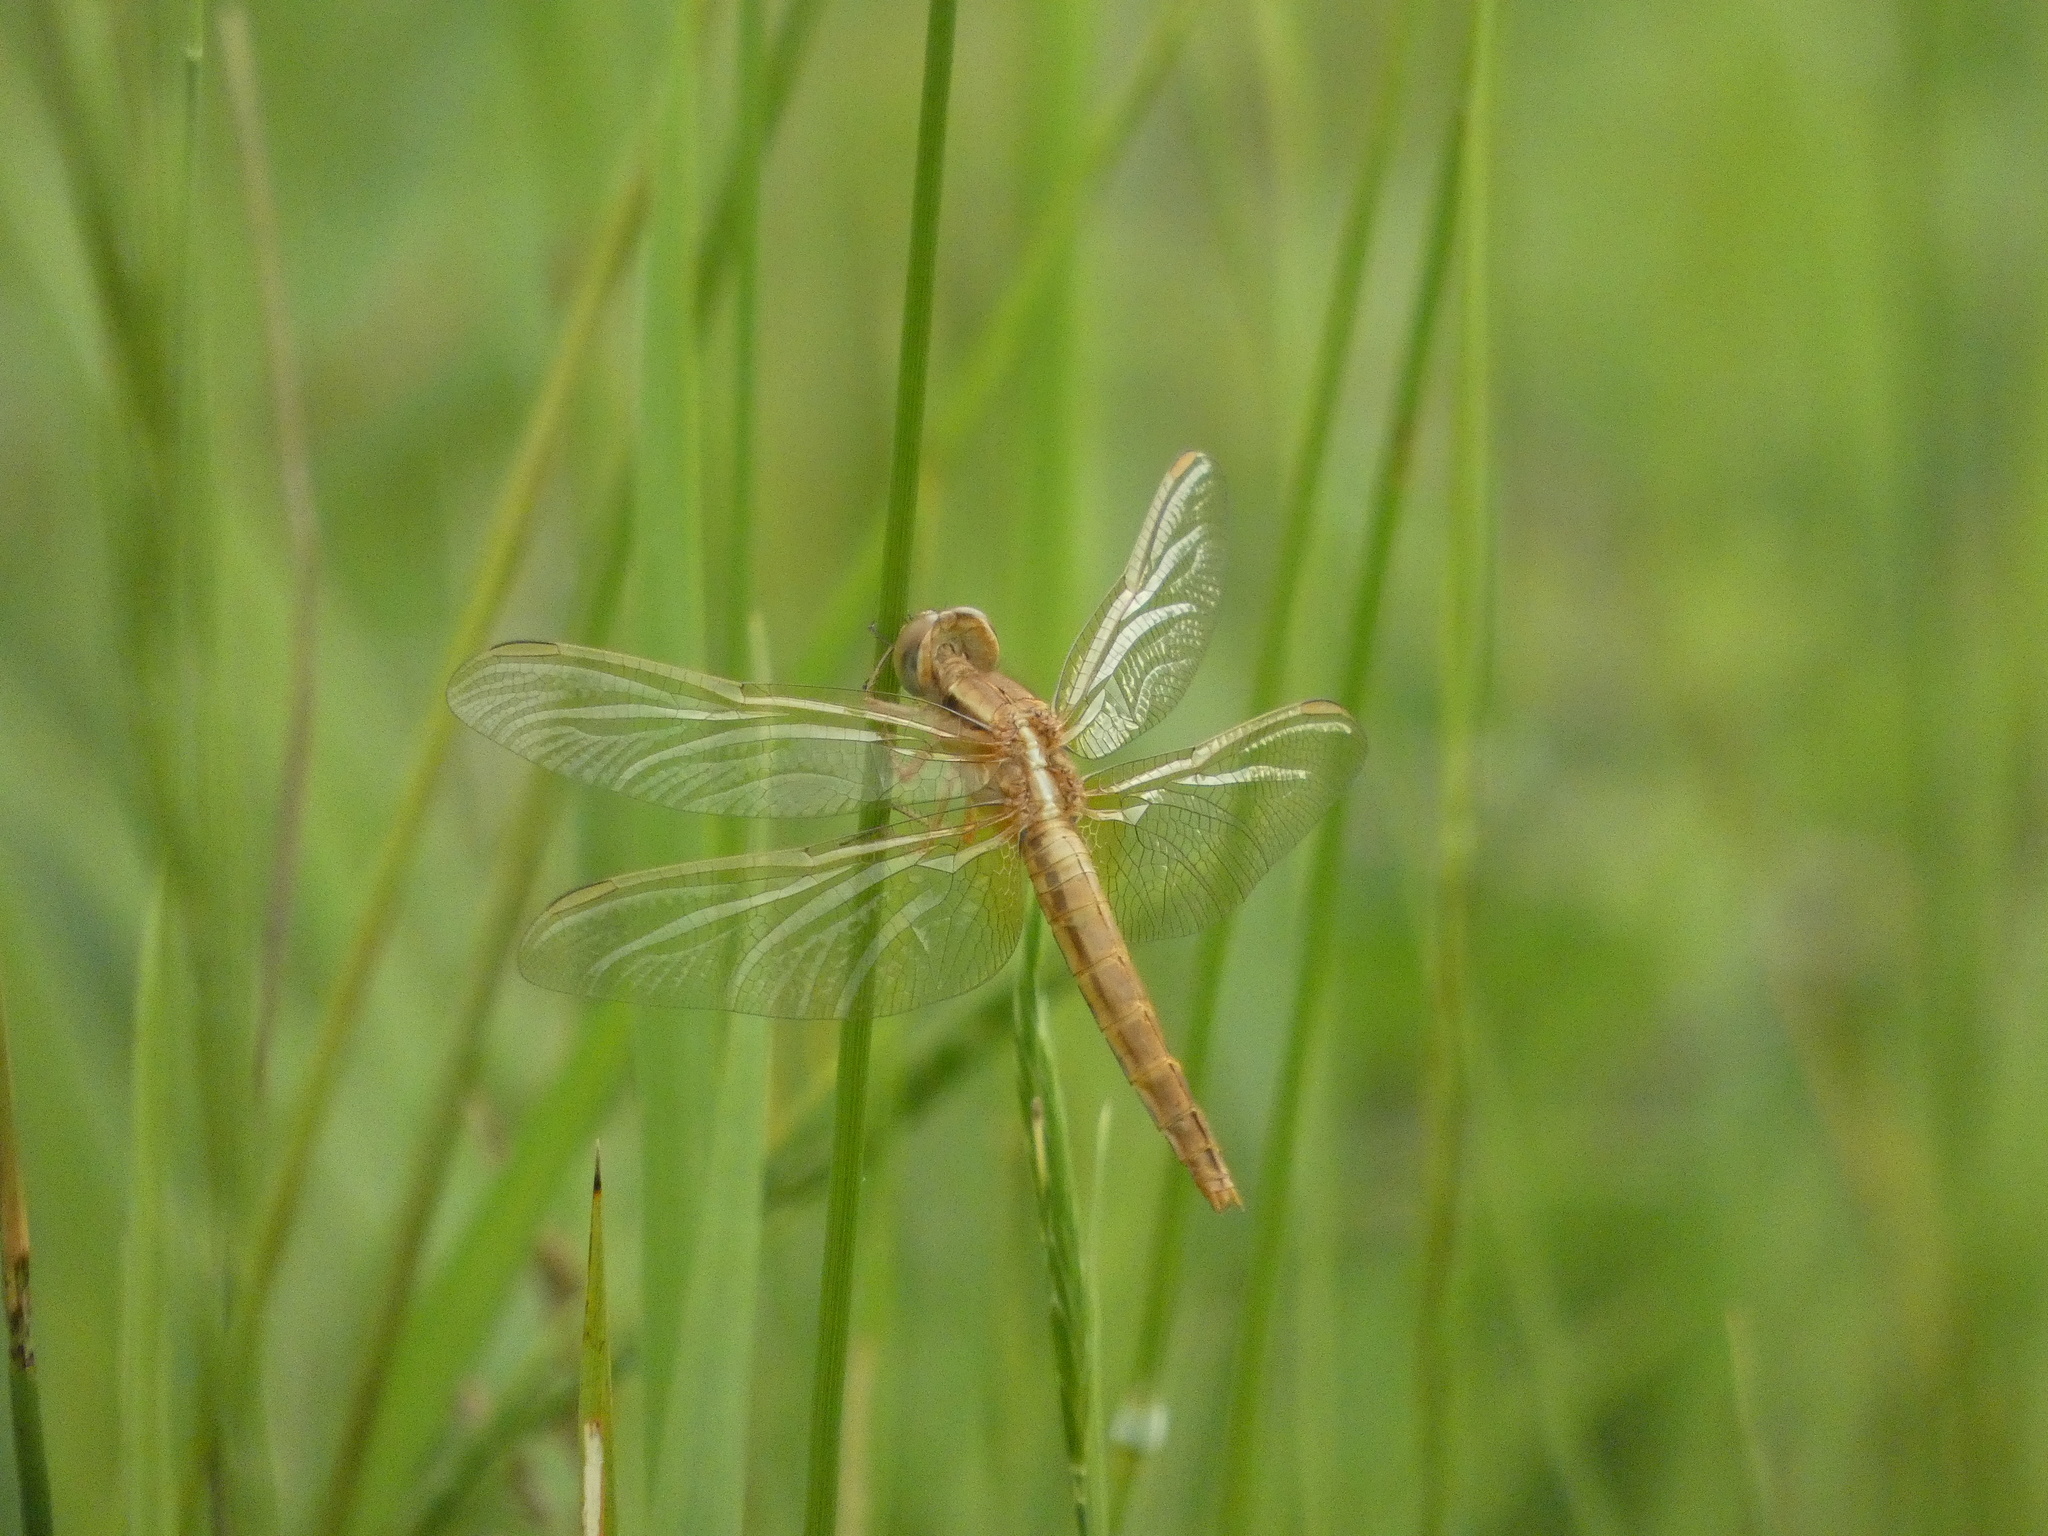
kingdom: Animalia
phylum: Arthropoda
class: Insecta
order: Odonata
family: Libellulidae
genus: Crocothemis
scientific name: Crocothemis erythraea
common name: Scarlet dragonfly
